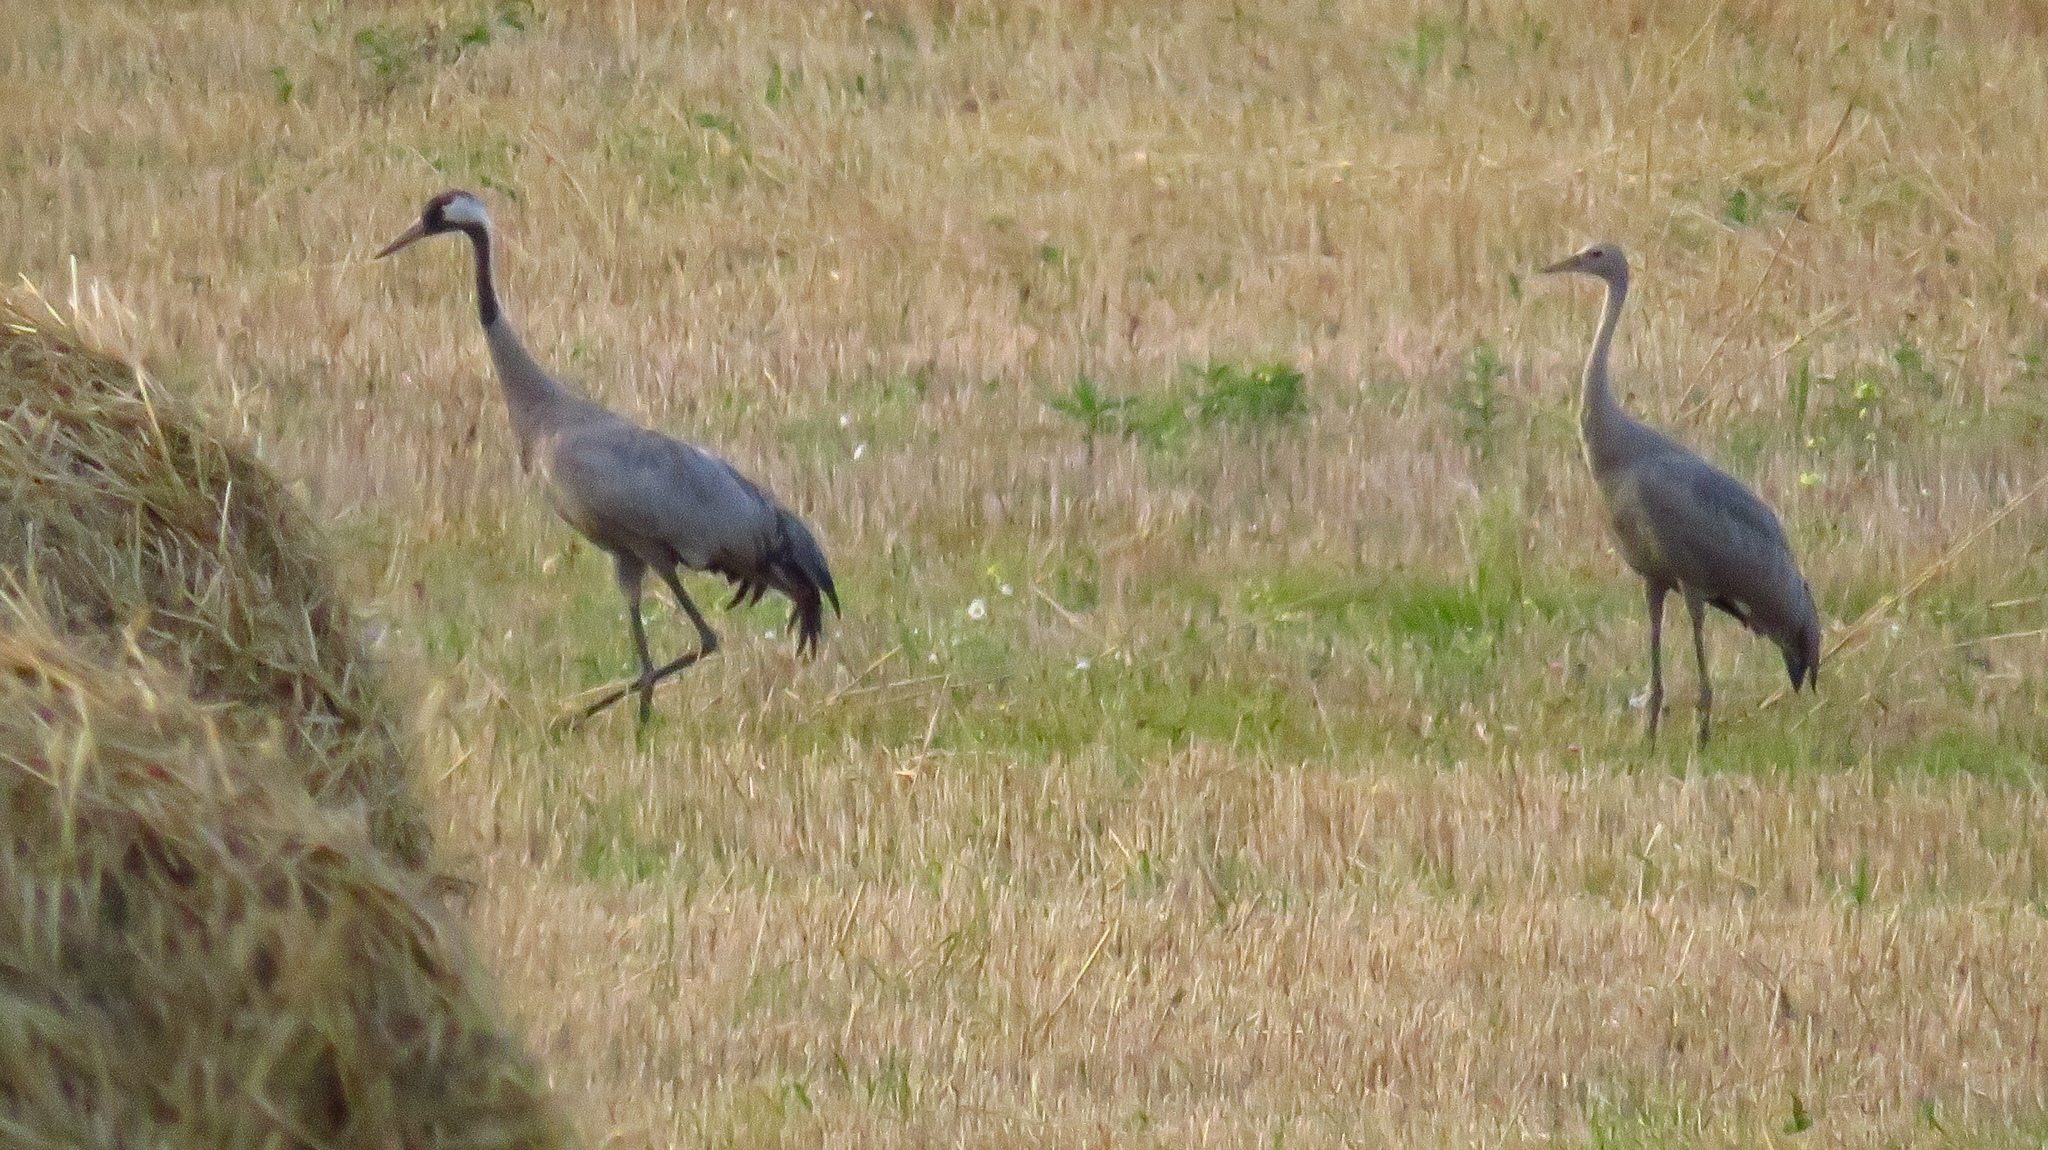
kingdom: Animalia
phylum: Chordata
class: Aves
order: Gruiformes
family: Gruidae
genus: Grus
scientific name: Grus grus
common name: Common crane
